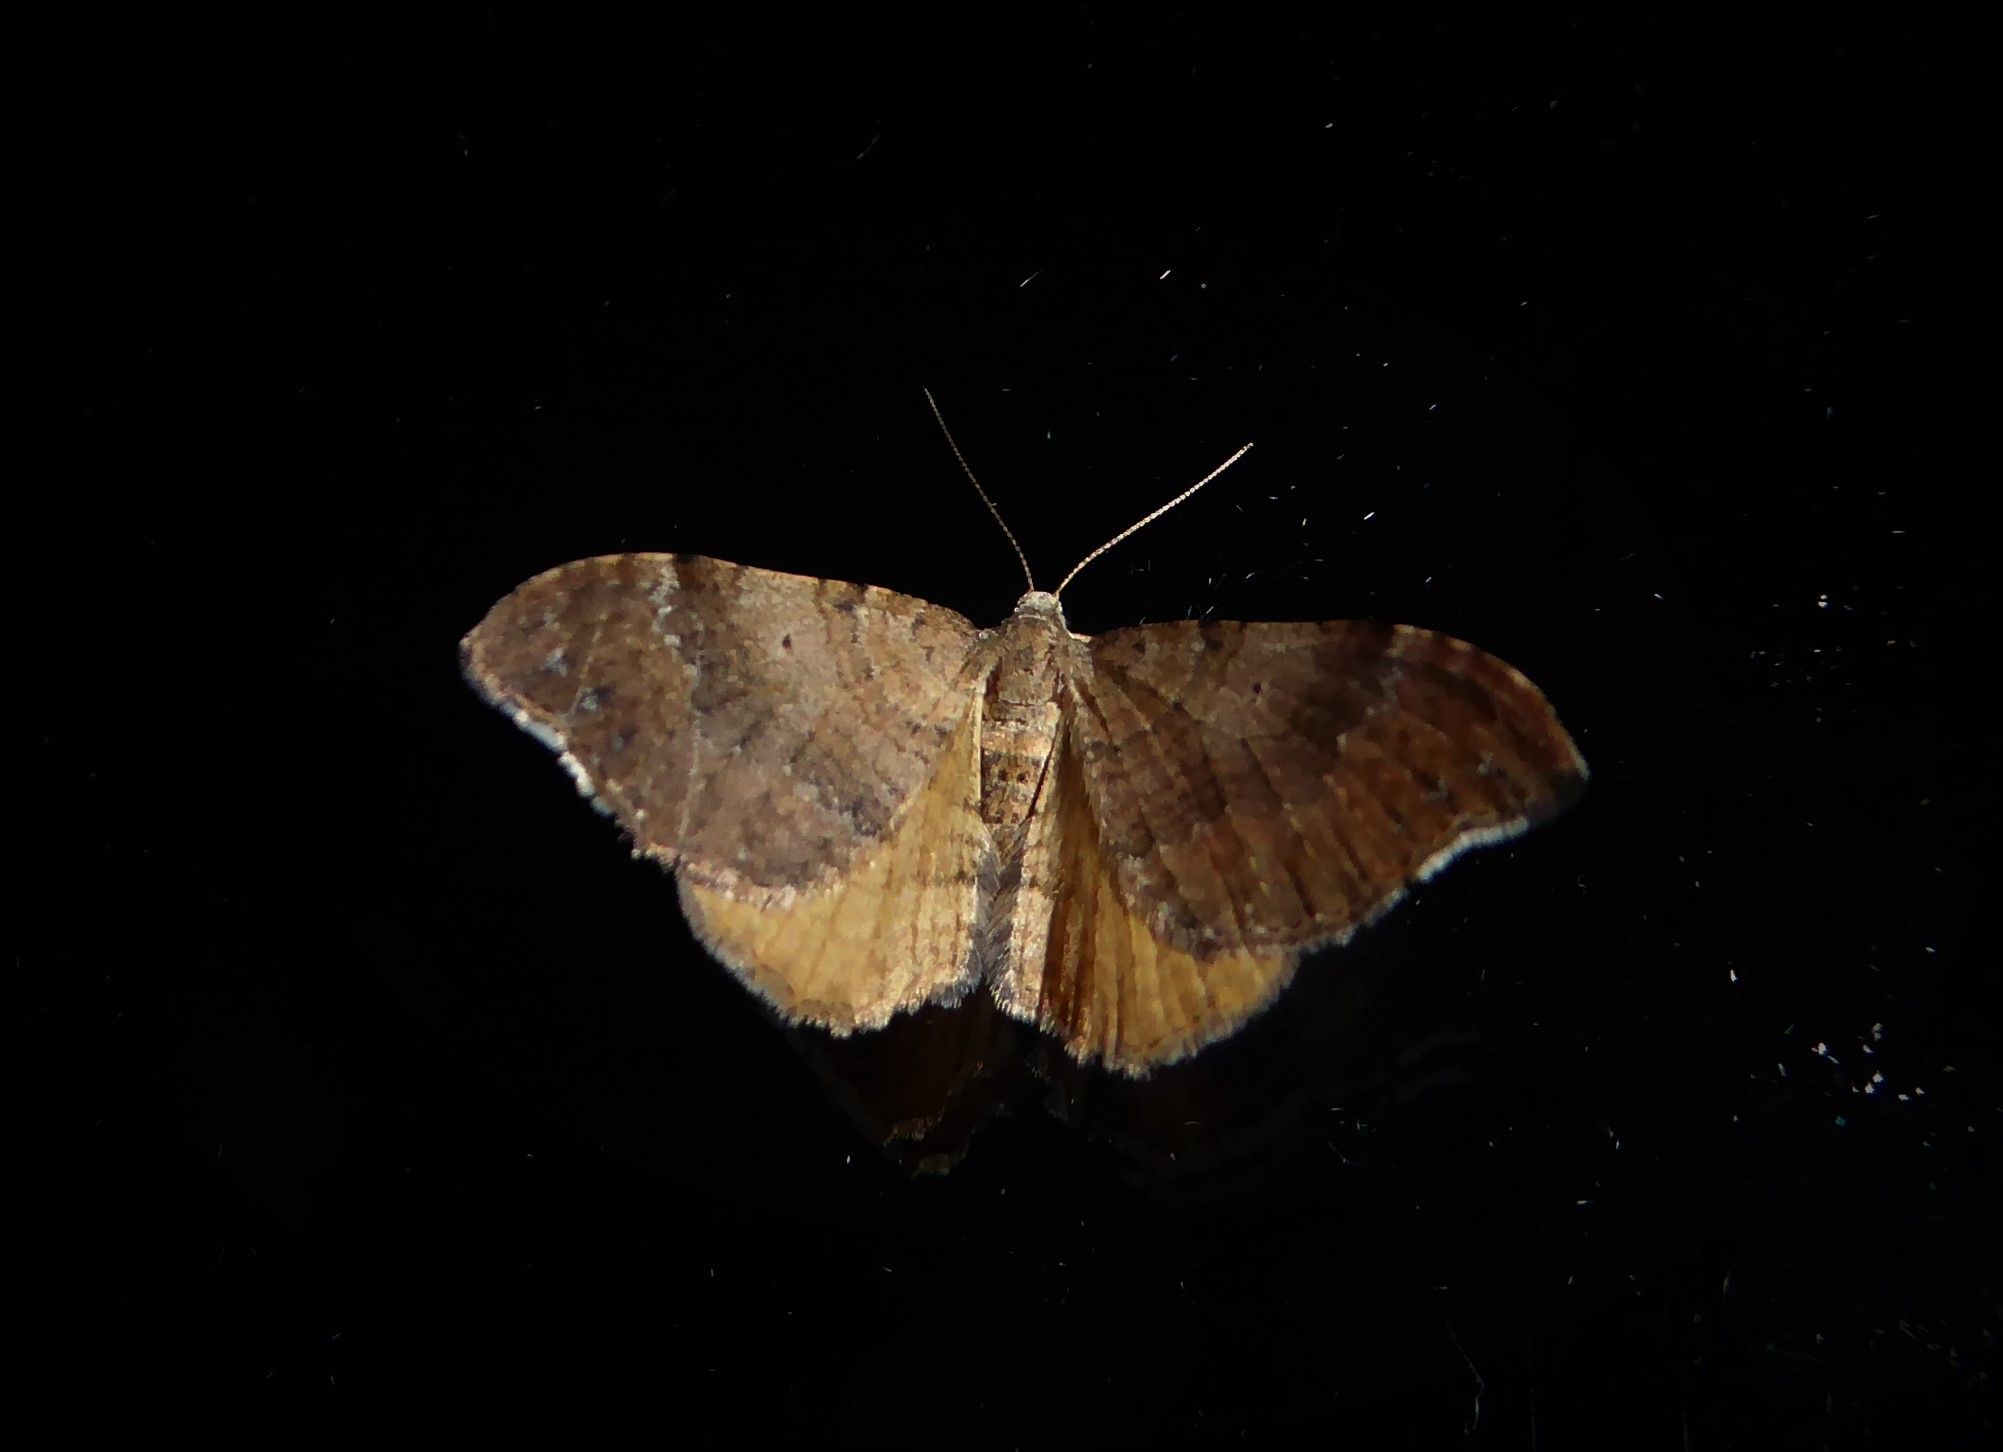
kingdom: Animalia
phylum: Arthropoda
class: Insecta
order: Lepidoptera
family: Geometridae
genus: Homodotis
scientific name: Homodotis megaspilata
